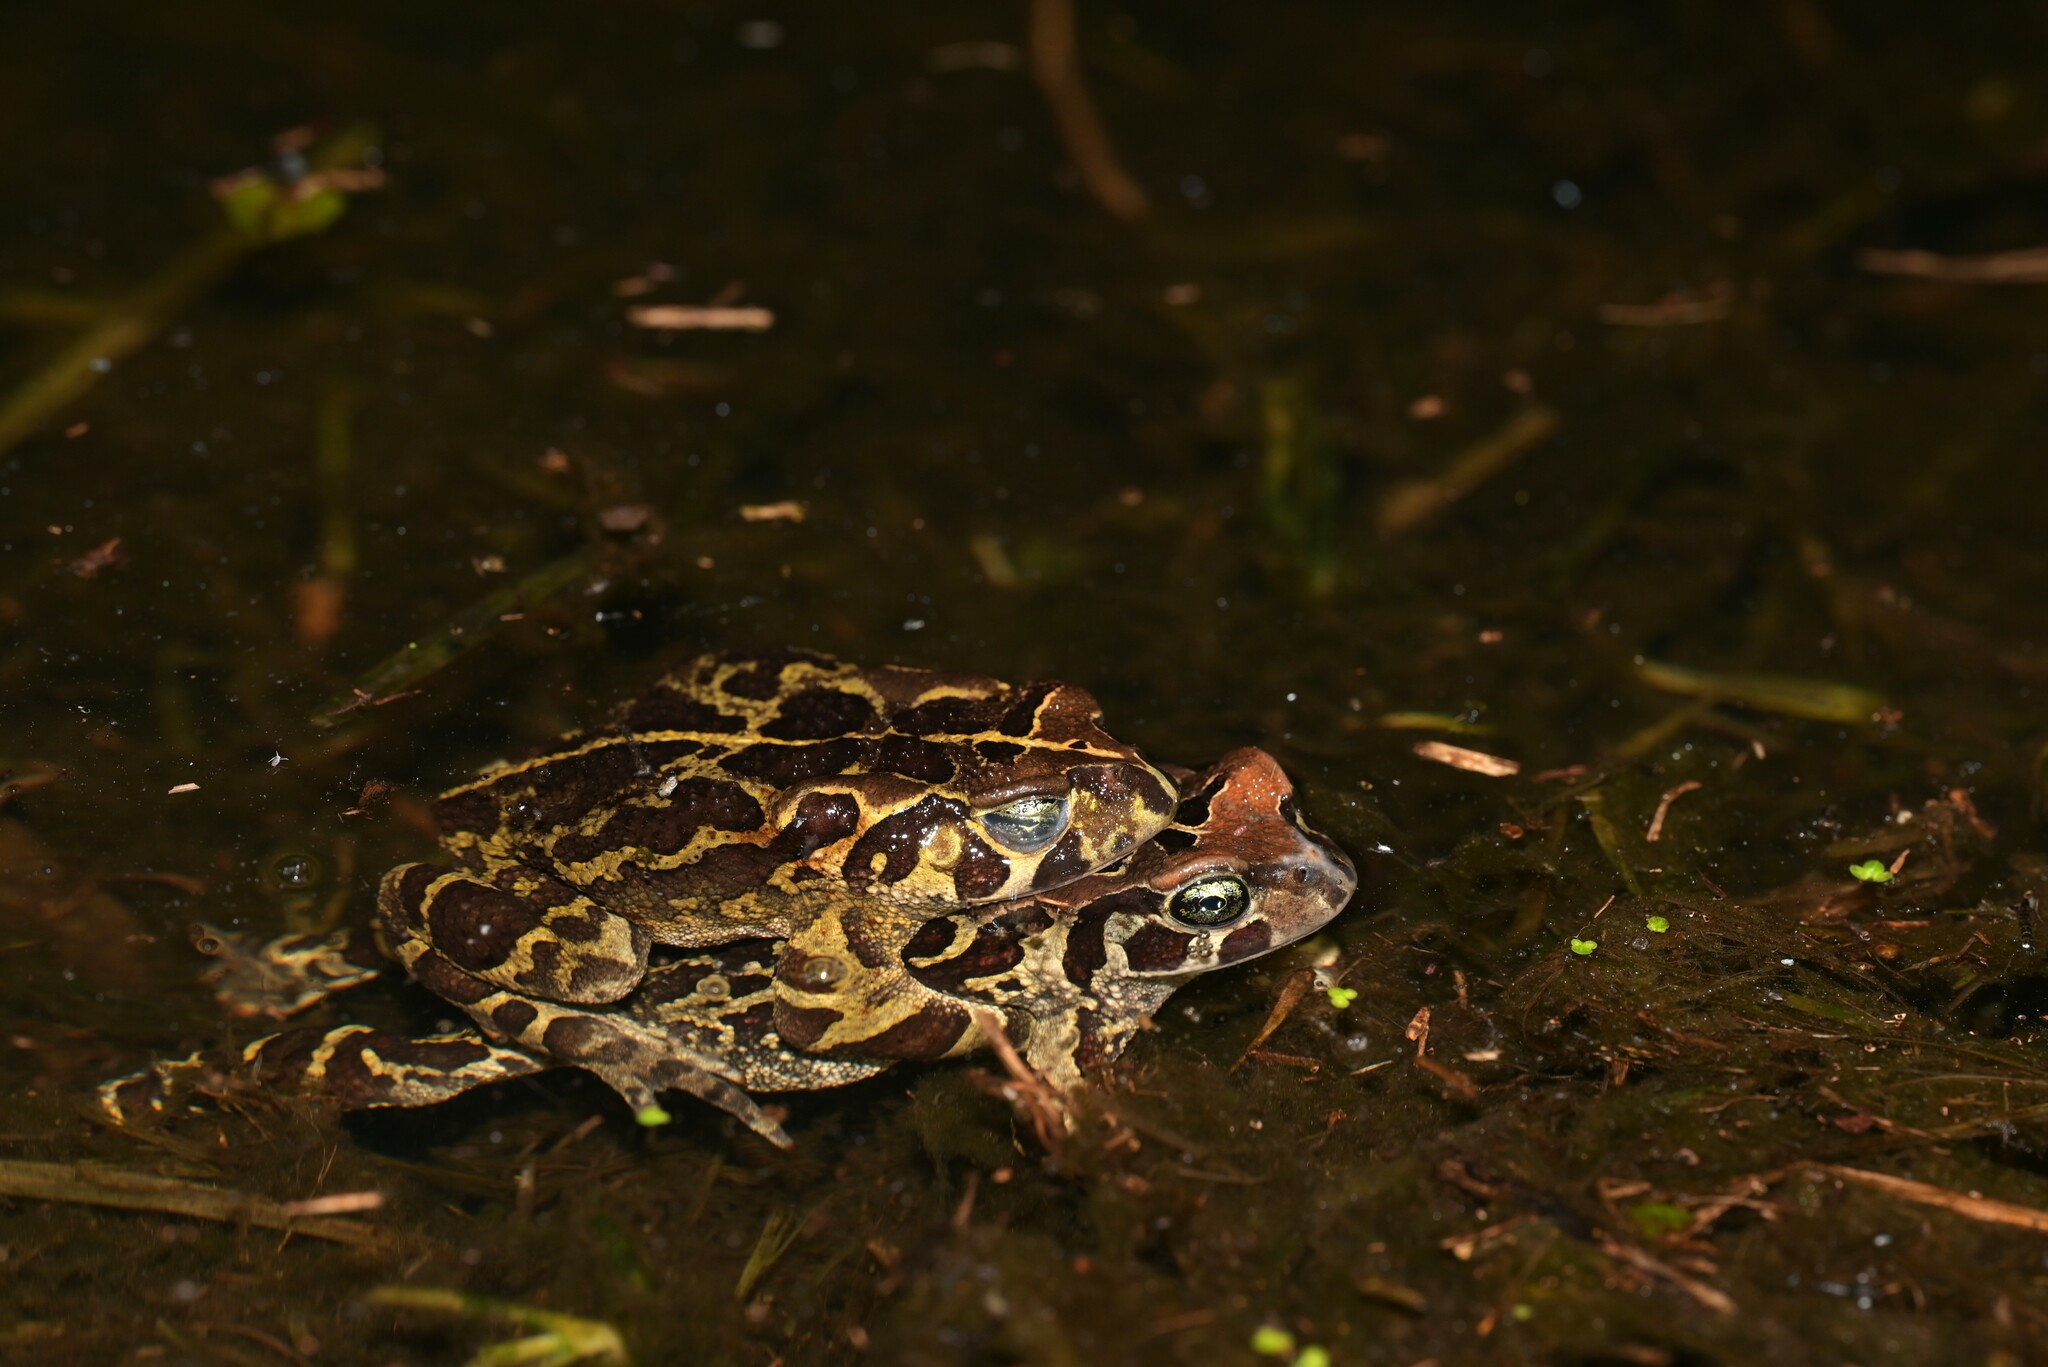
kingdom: Animalia
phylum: Chordata
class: Amphibia
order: Anura
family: Bufonidae
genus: Sclerophrys
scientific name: Sclerophrys pantherina
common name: Panther toad
